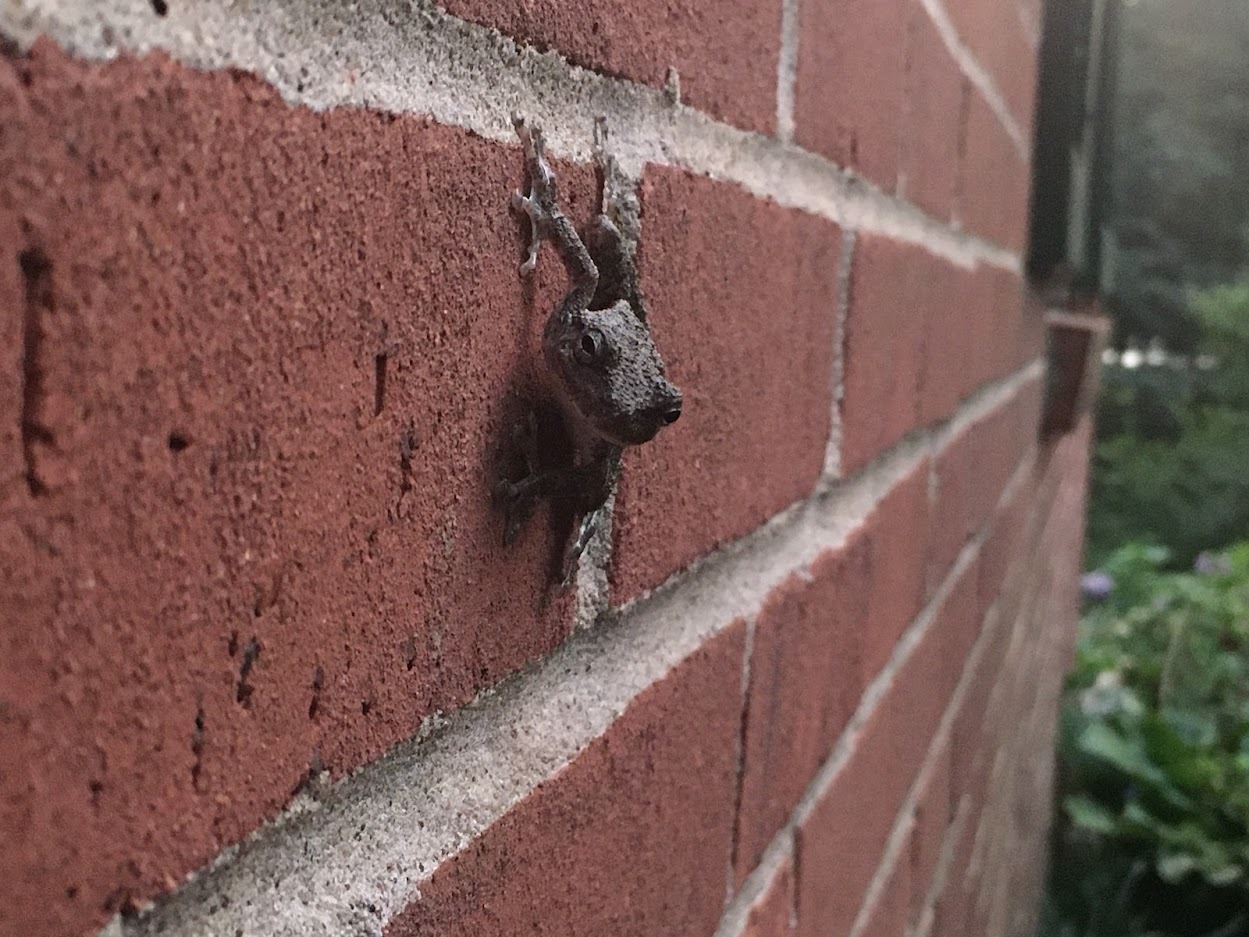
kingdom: Animalia
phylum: Chordata
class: Amphibia
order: Anura
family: Hylidae
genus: Hyla
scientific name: Hyla
